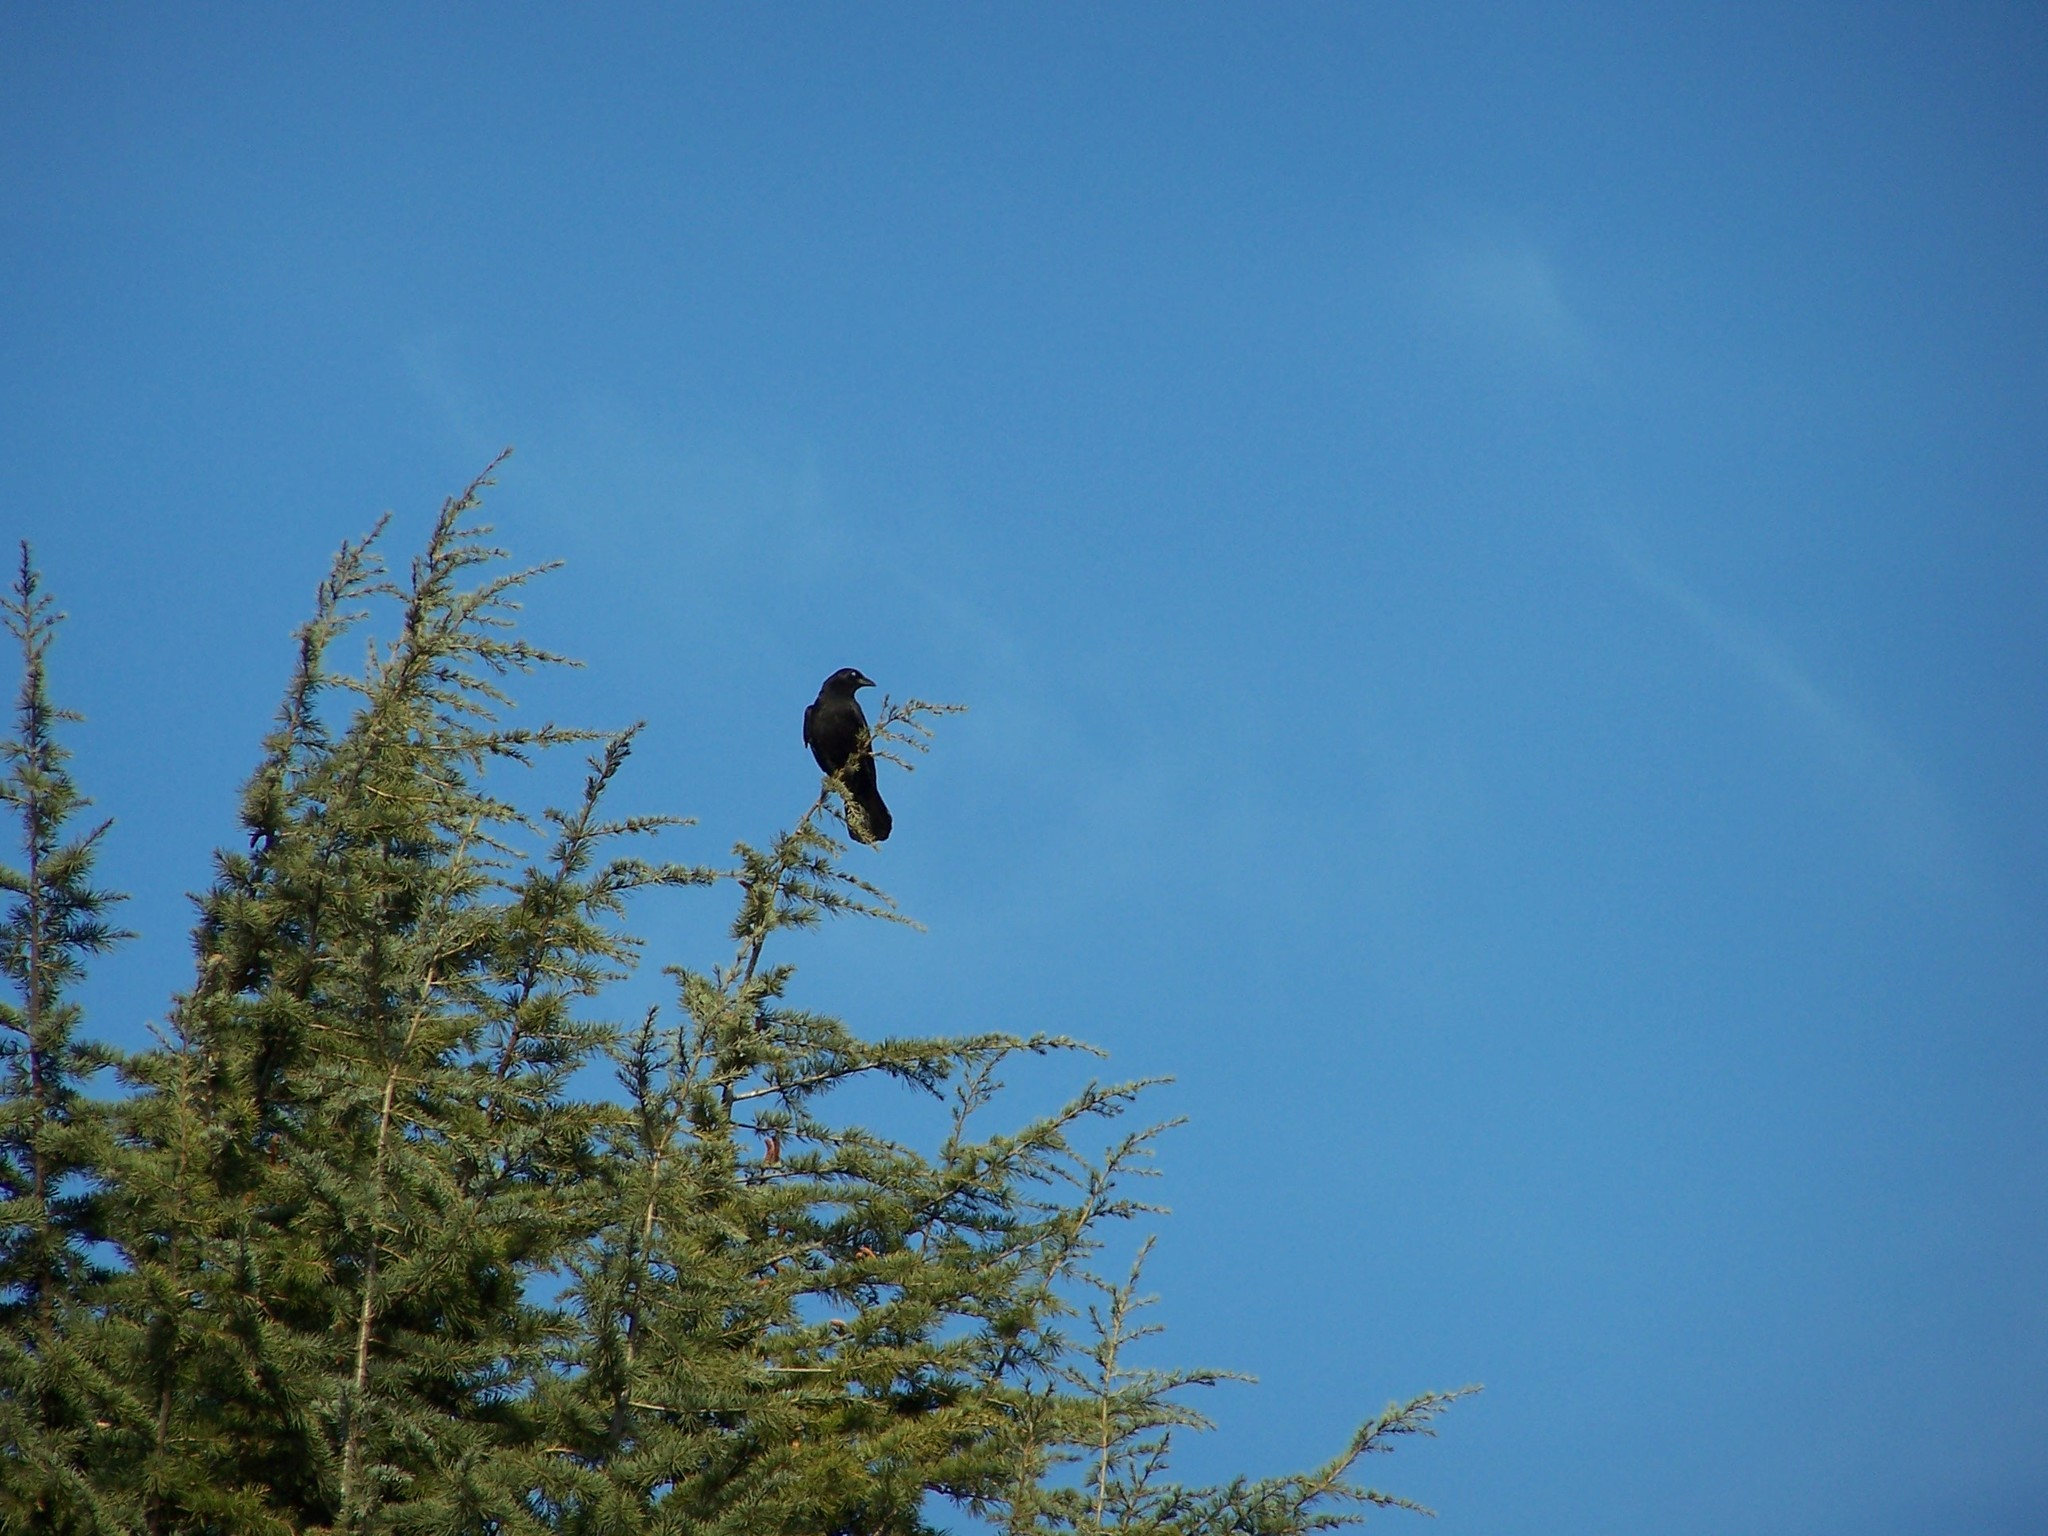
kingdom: Animalia
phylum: Chordata
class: Aves
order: Passeriformes
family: Corvidae
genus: Corvus
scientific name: Corvus brachyrhynchos
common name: American crow
